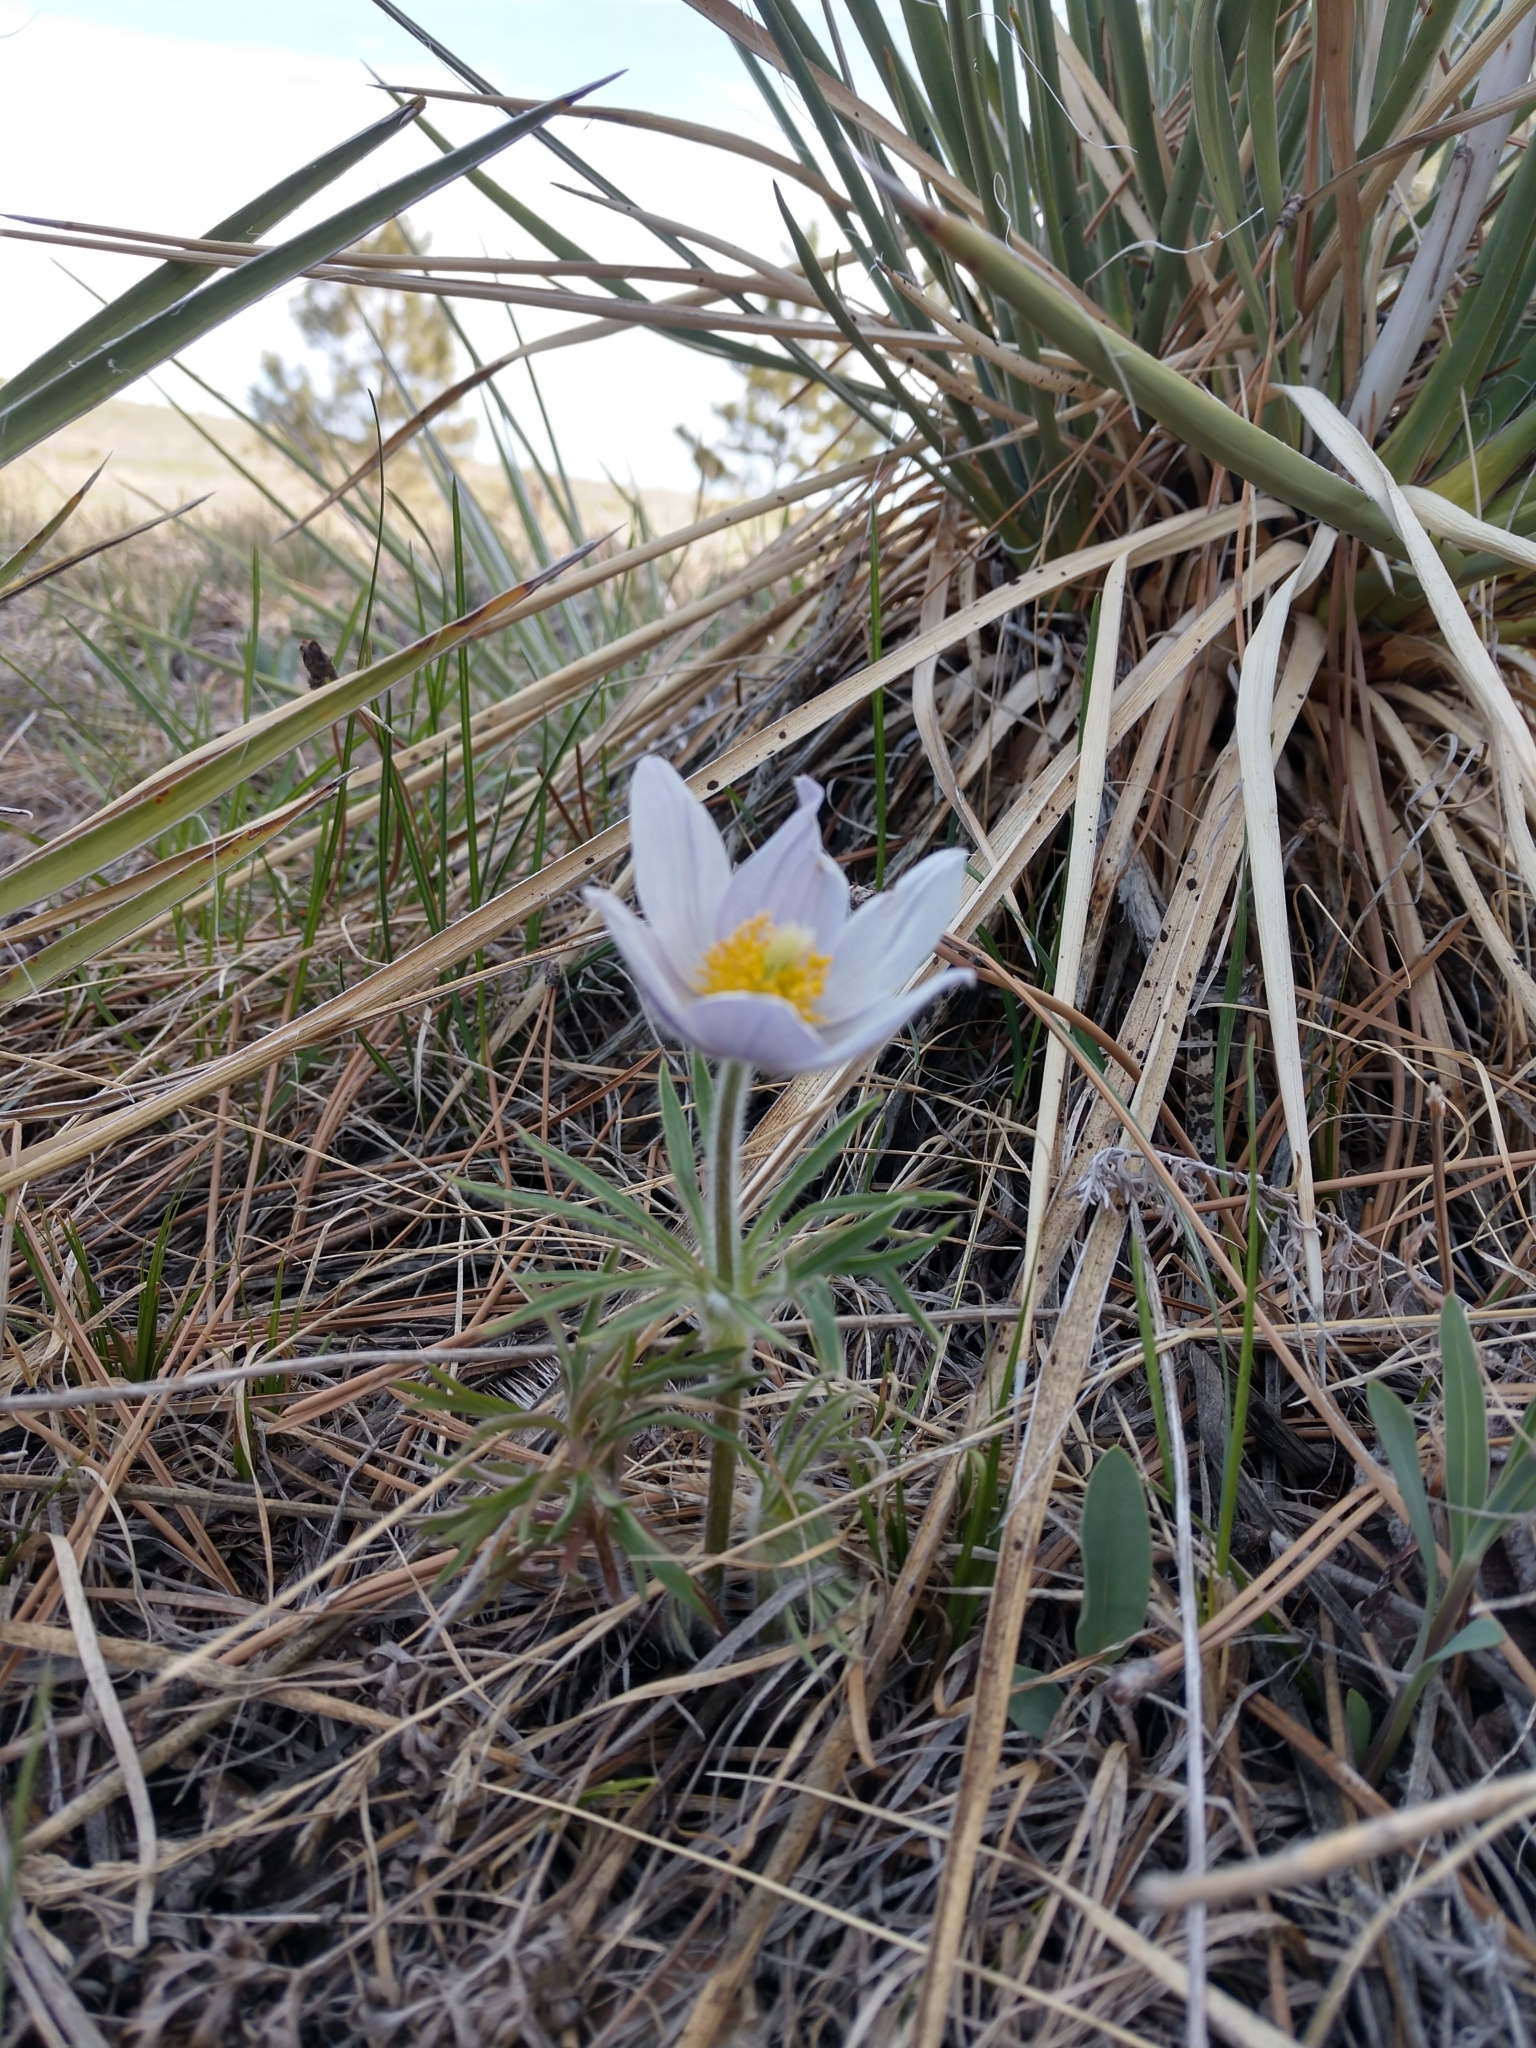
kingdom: Plantae
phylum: Tracheophyta
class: Magnoliopsida
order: Ranunculales
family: Ranunculaceae
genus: Pulsatilla
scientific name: Pulsatilla nuttalliana
